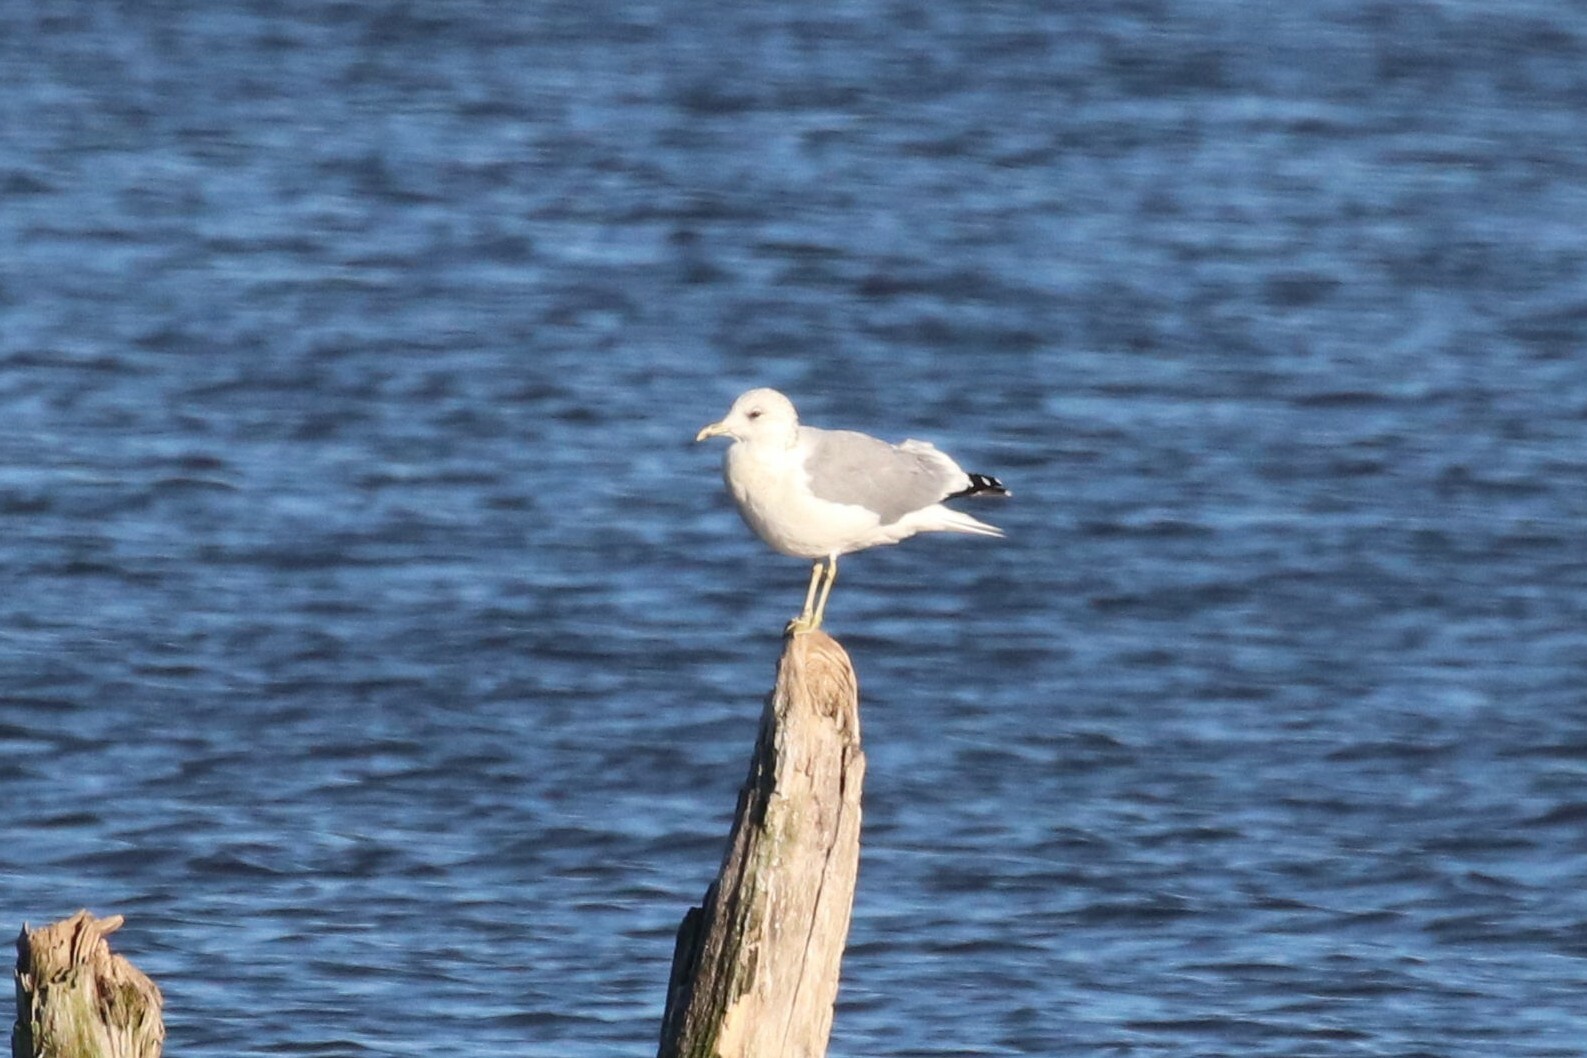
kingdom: Animalia
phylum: Chordata
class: Aves
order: Charadriiformes
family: Laridae
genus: Larus
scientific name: Larus canus
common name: Mew gull
